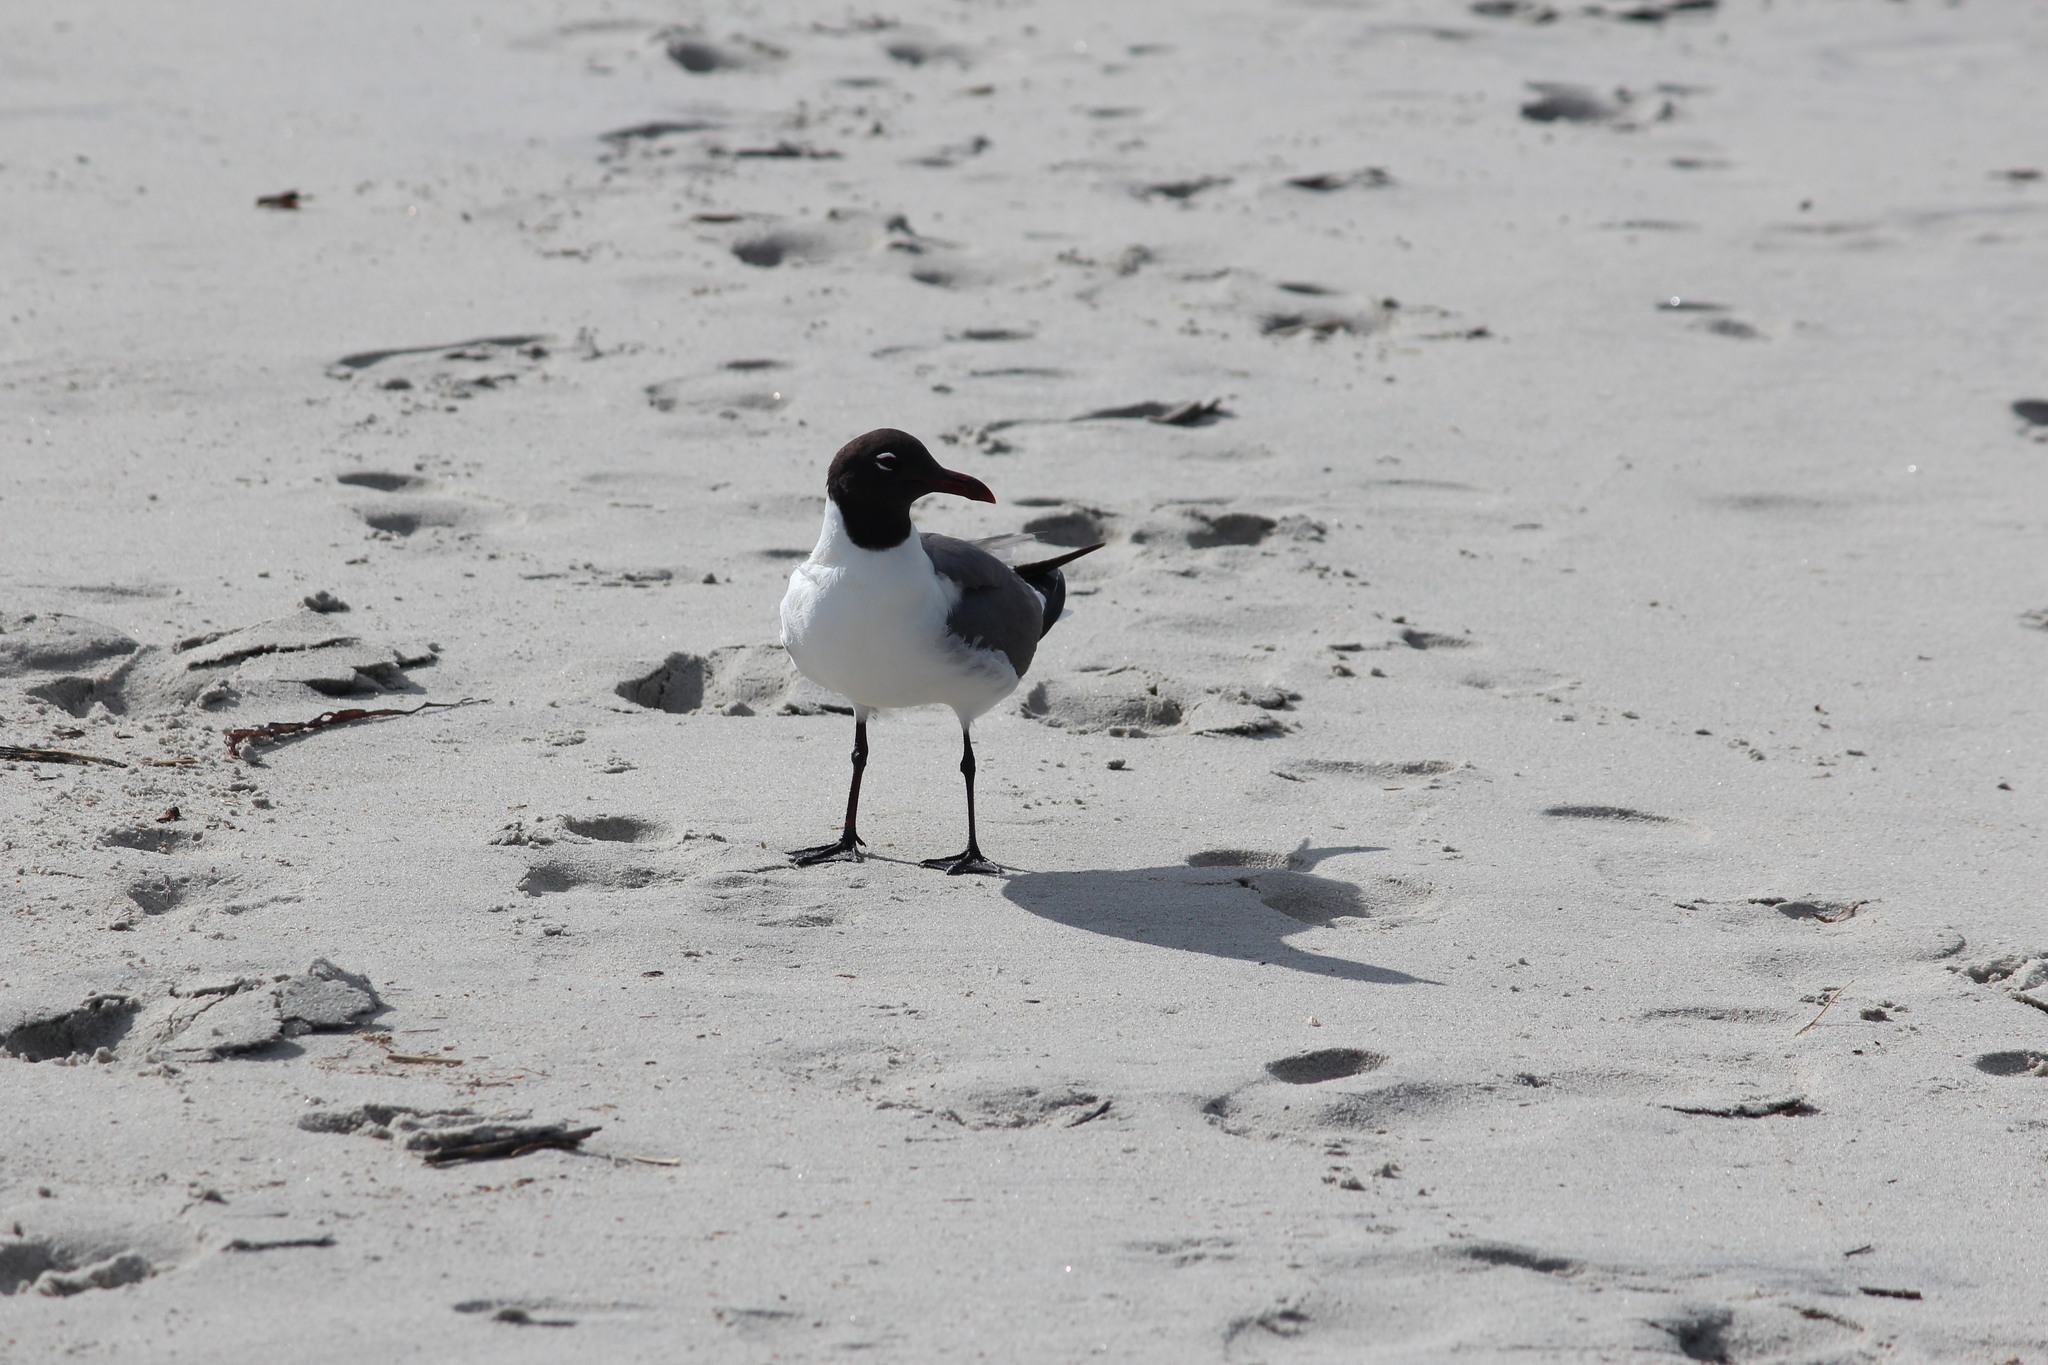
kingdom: Animalia
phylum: Chordata
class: Aves
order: Charadriiformes
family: Laridae
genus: Leucophaeus
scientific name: Leucophaeus atricilla
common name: Laughing gull
